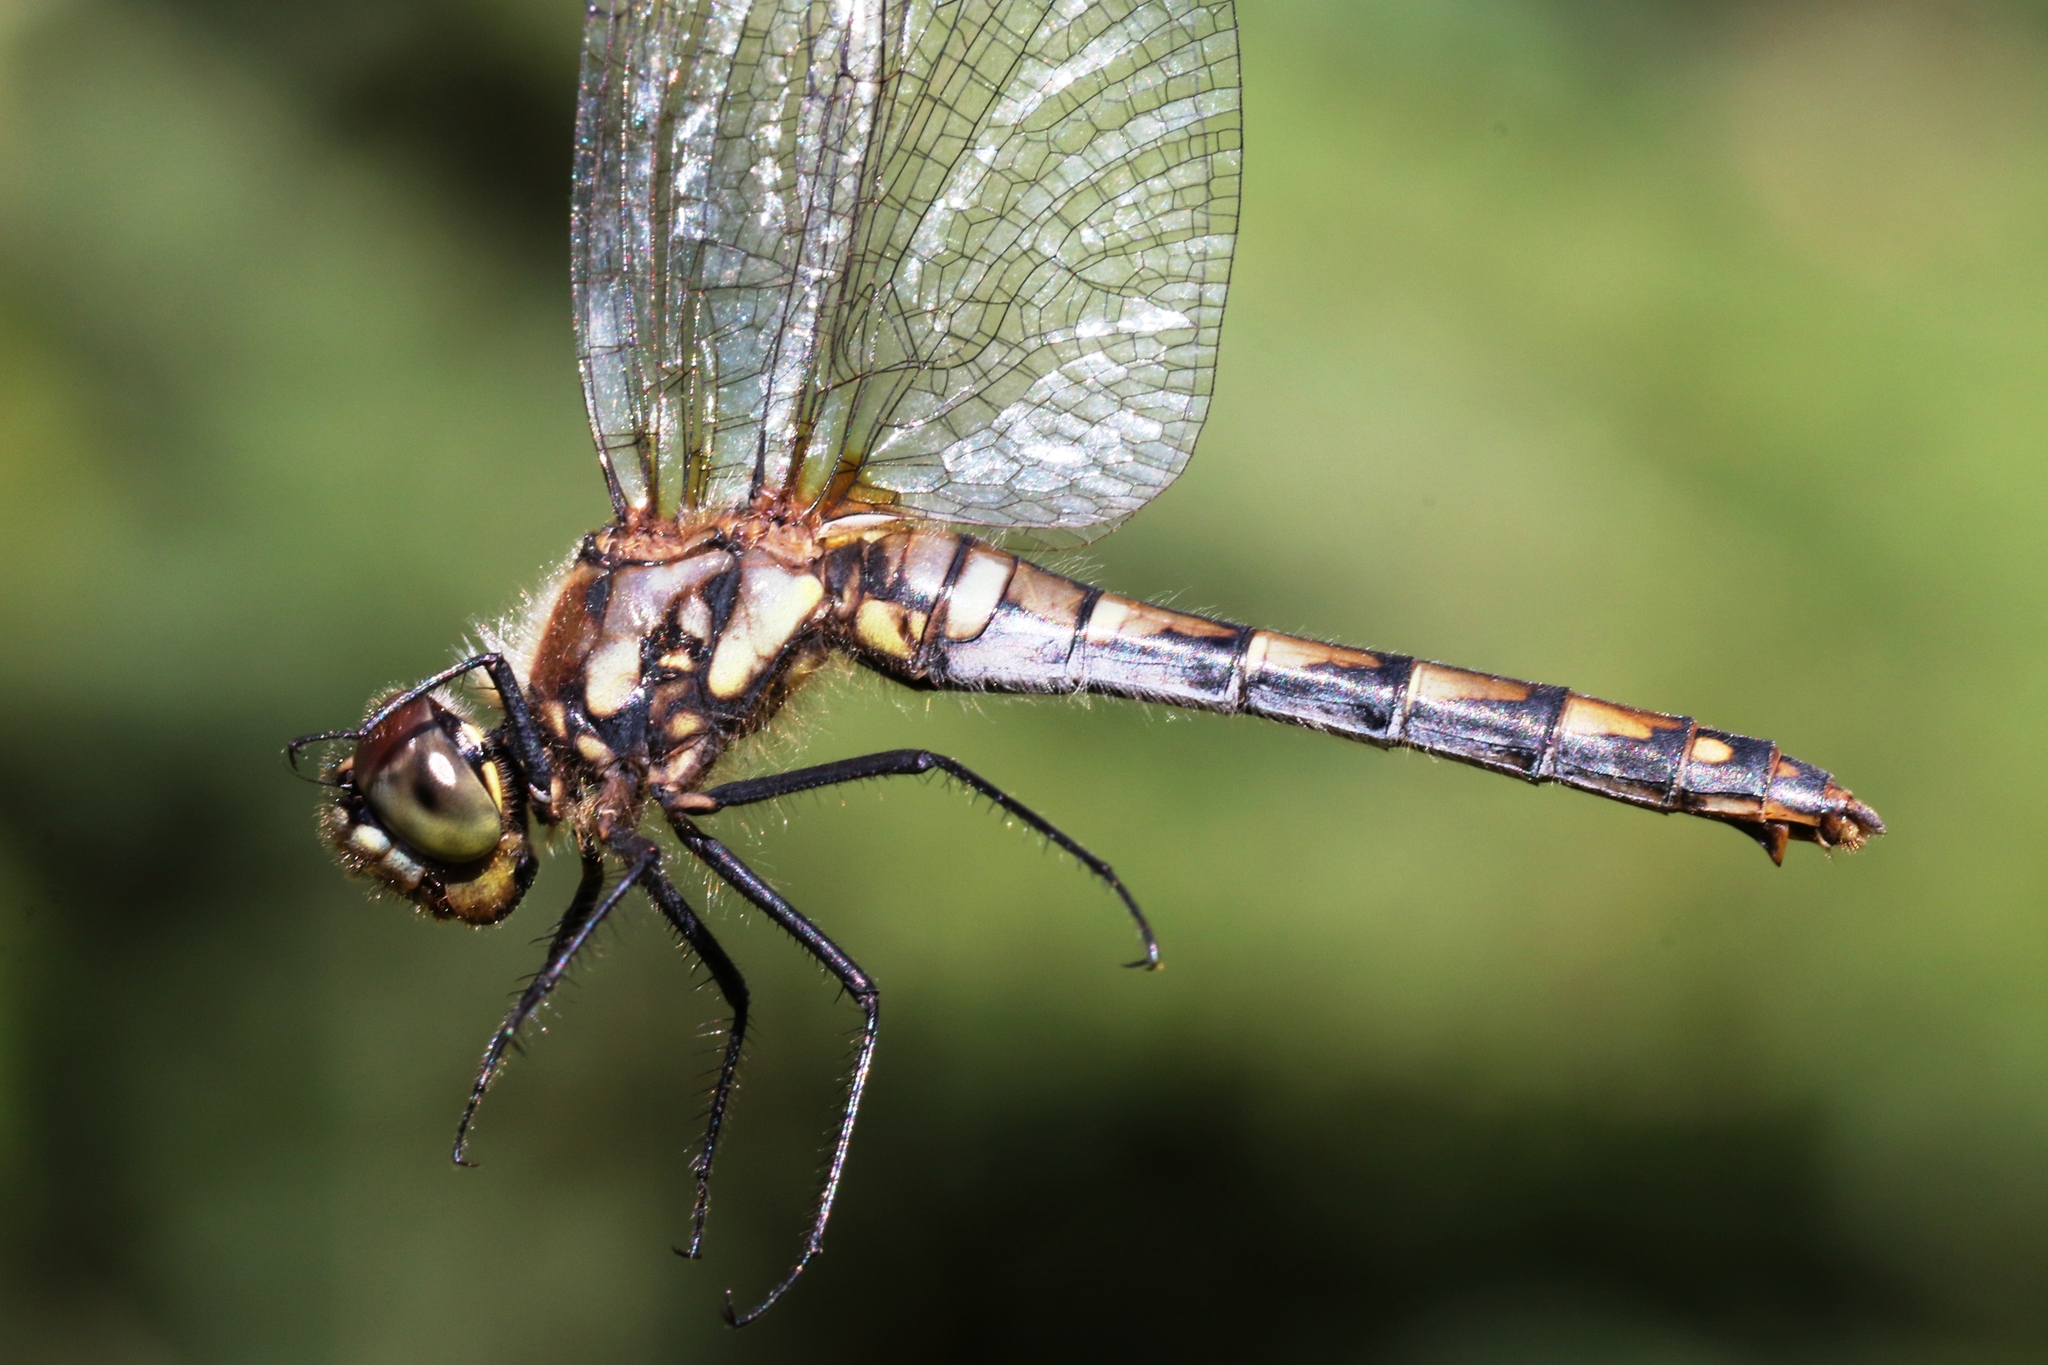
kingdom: Animalia
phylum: Arthropoda
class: Insecta
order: Odonata
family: Libellulidae
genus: Sympetrum
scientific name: Sympetrum danae
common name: Black darter
